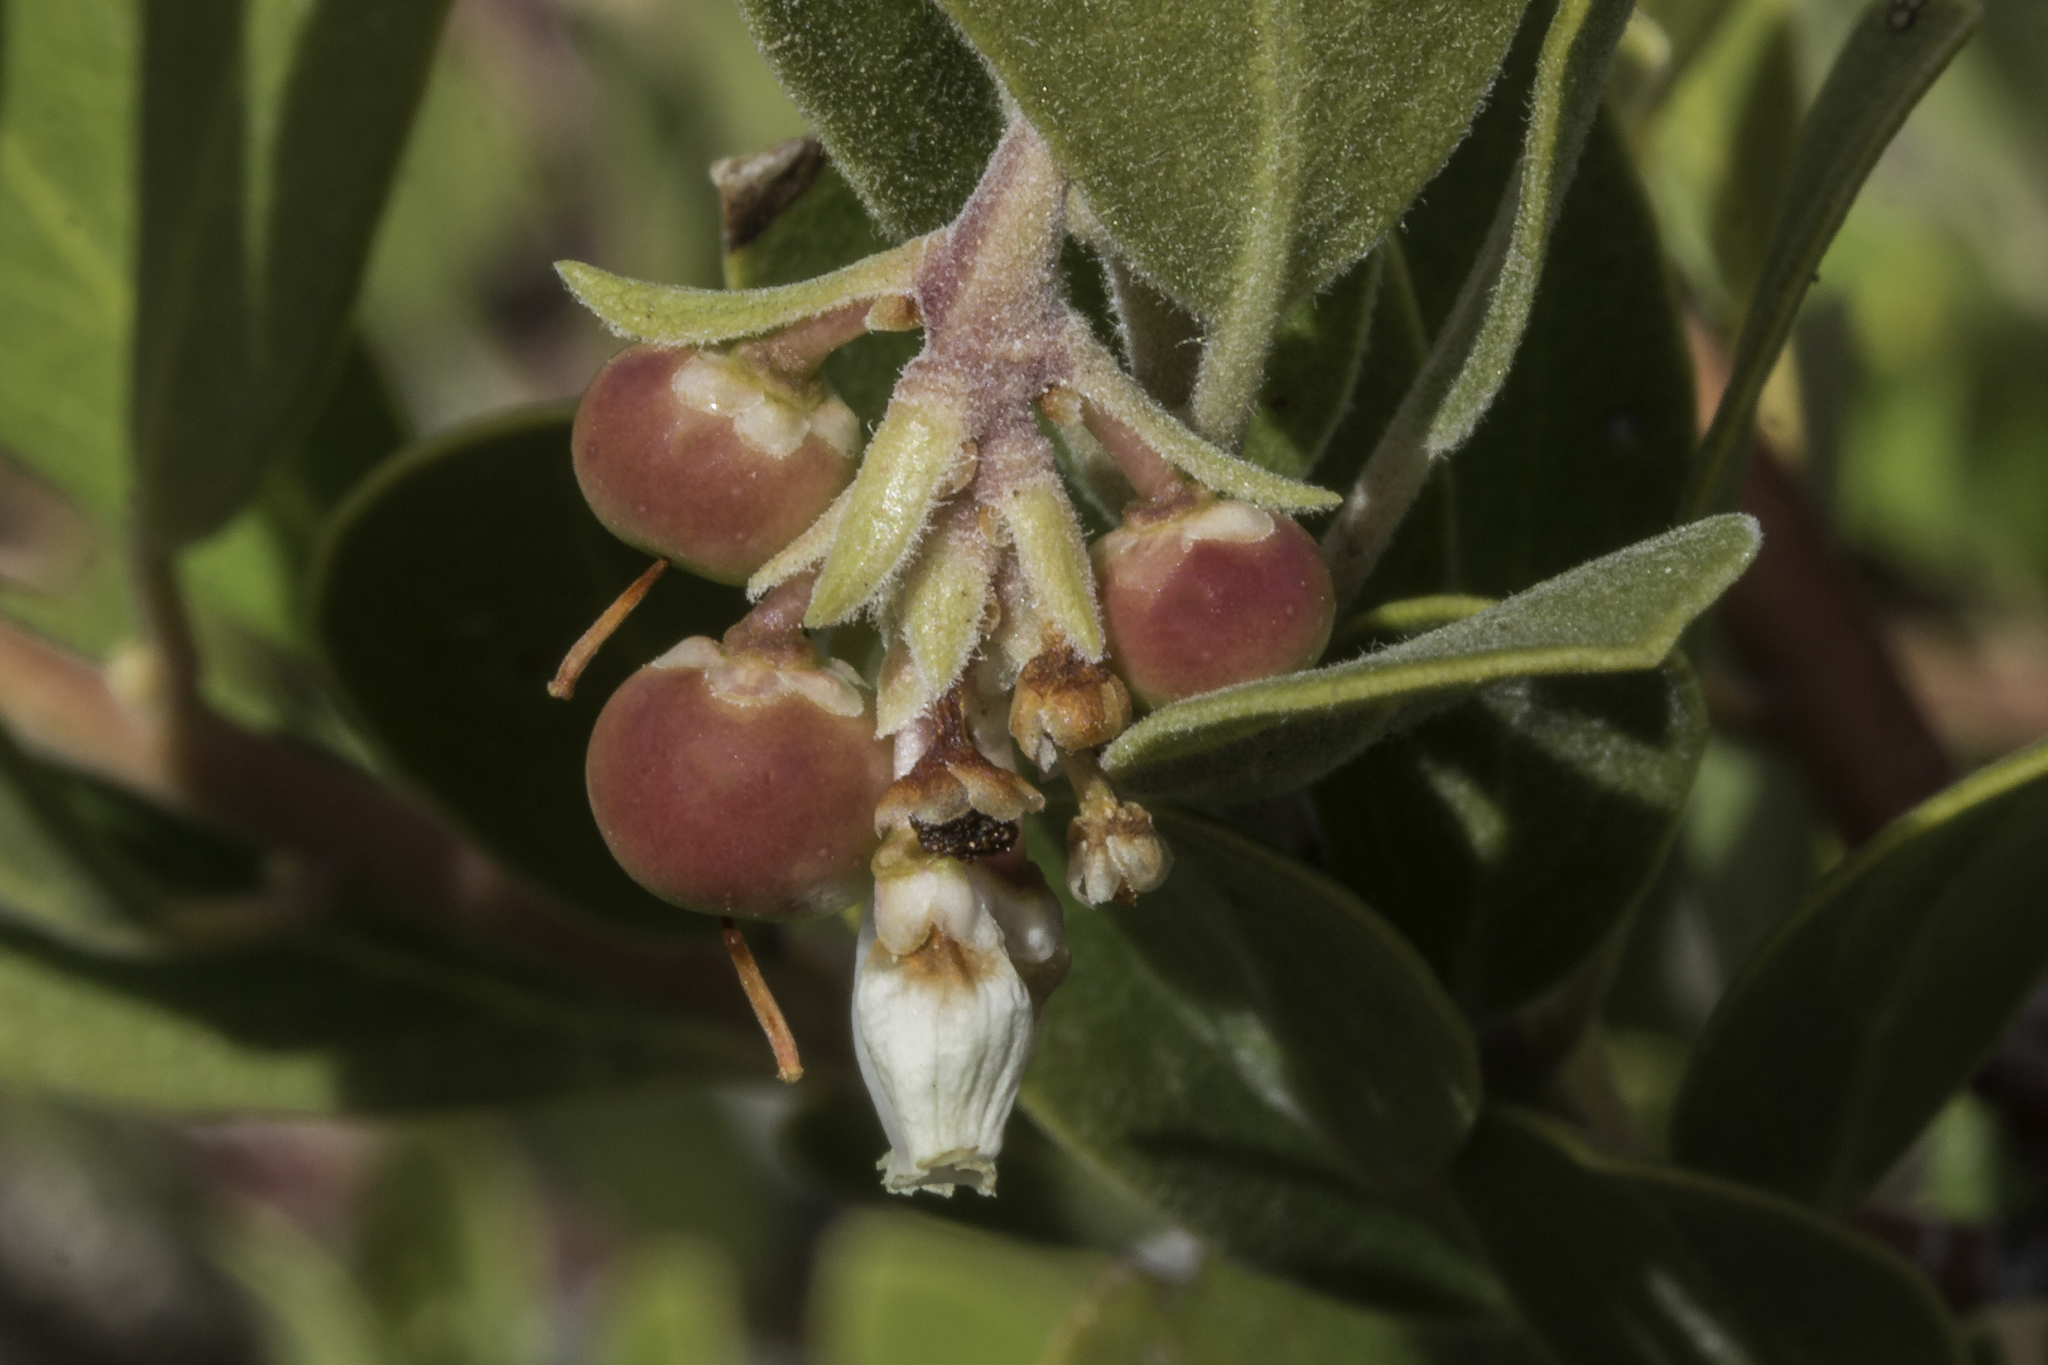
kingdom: Plantae
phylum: Tracheophyta
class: Magnoliopsida
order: Ericales
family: Ericaceae
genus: Arctostaphylos
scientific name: Arctostaphylos pungens
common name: Mexican manzanita
